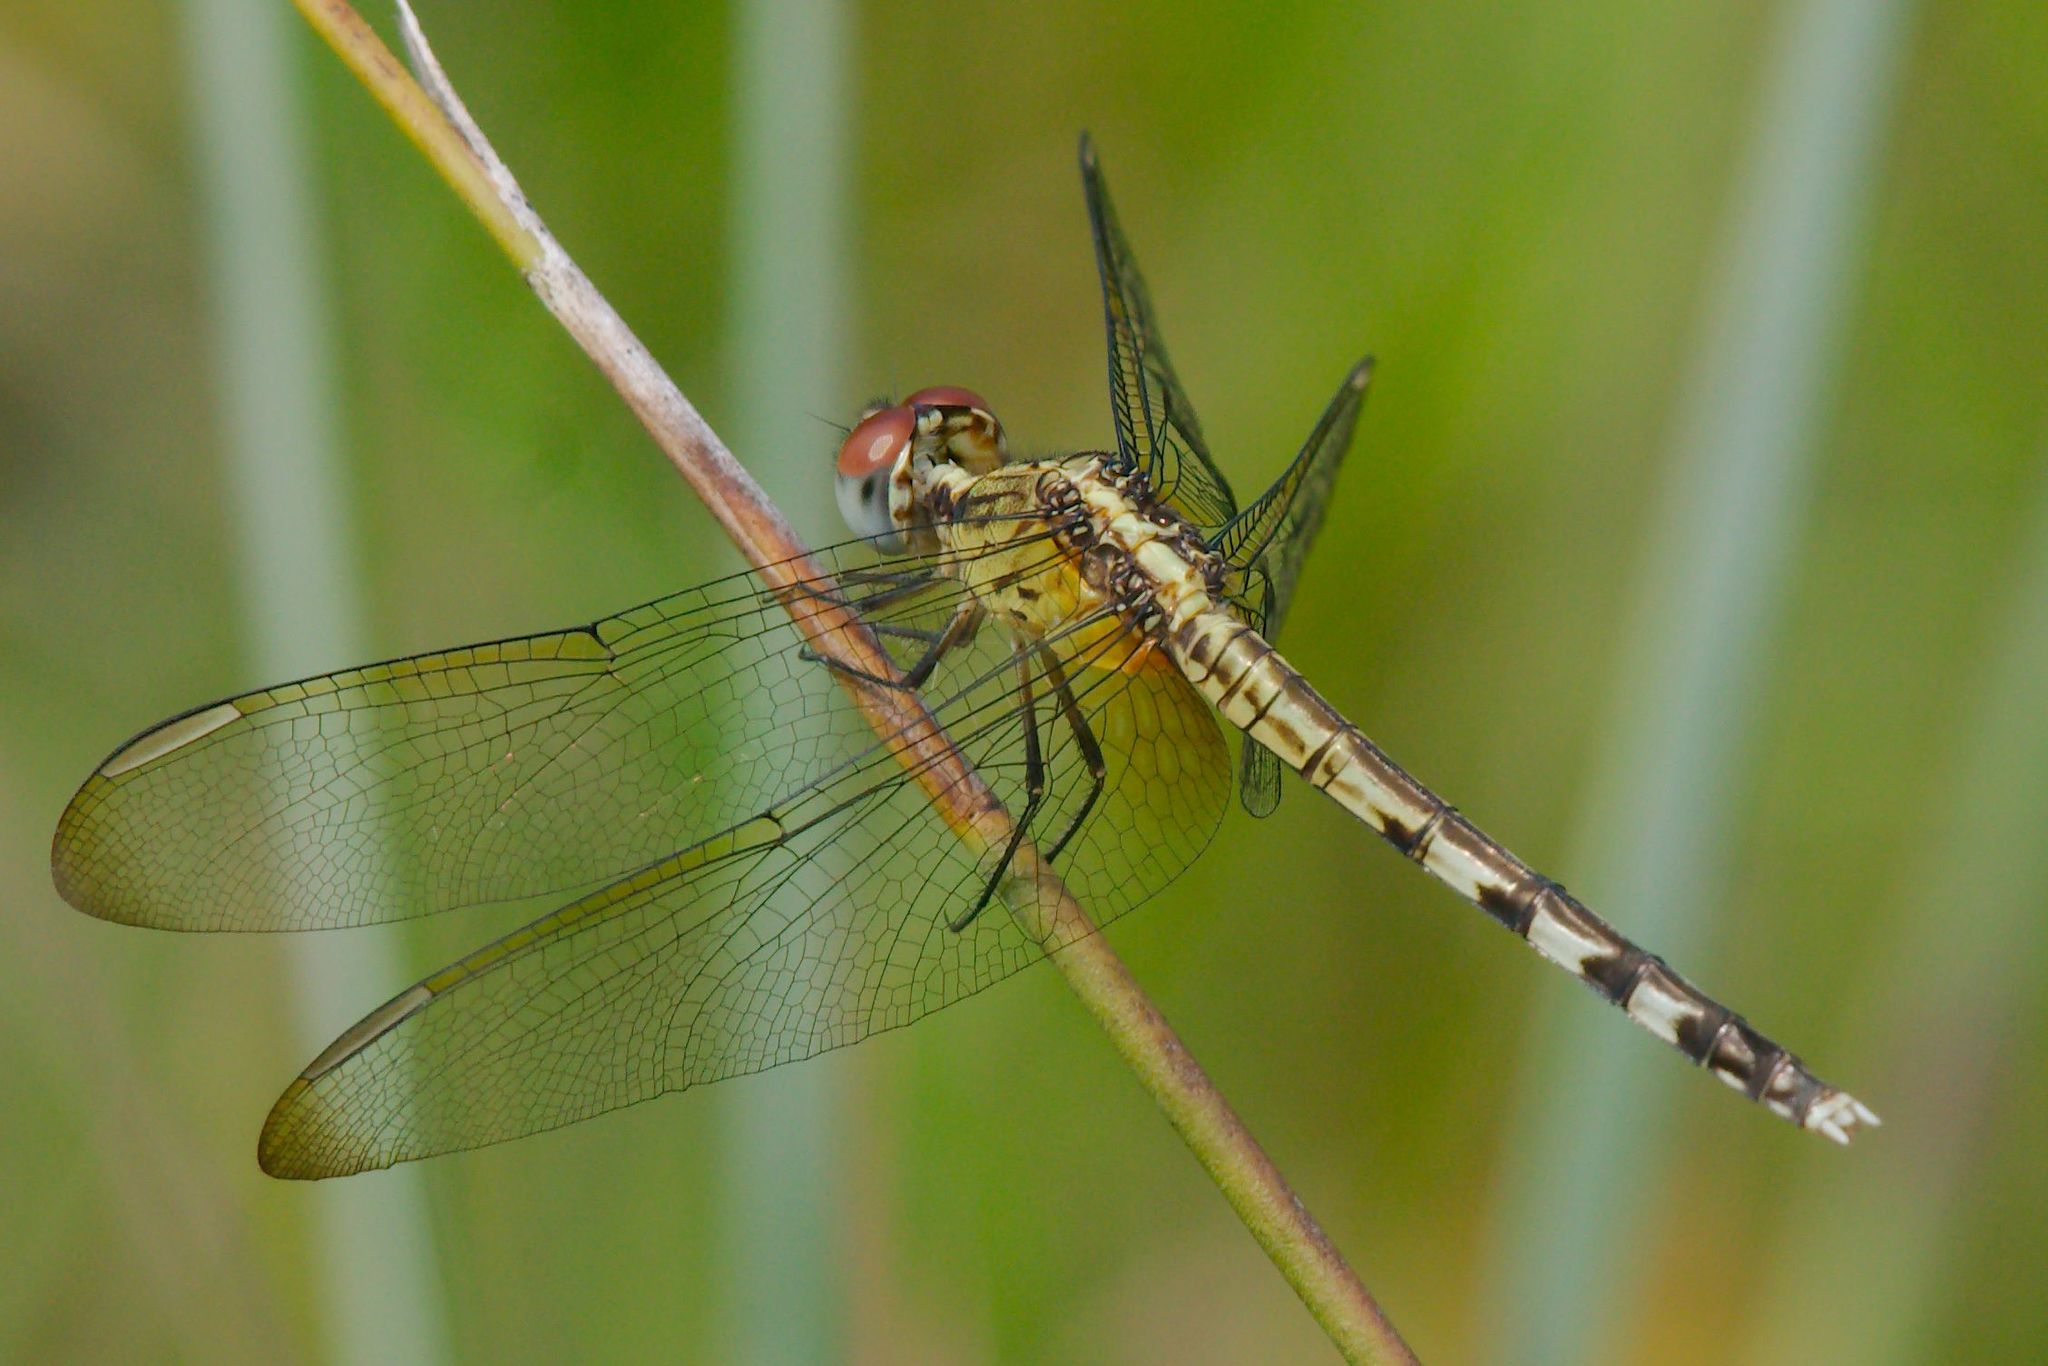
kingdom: Animalia
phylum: Arthropoda
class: Insecta
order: Odonata
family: Libellulidae
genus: Erythrodiplax
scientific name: Erythrodiplax umbrata
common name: Band-winged dragonlet
